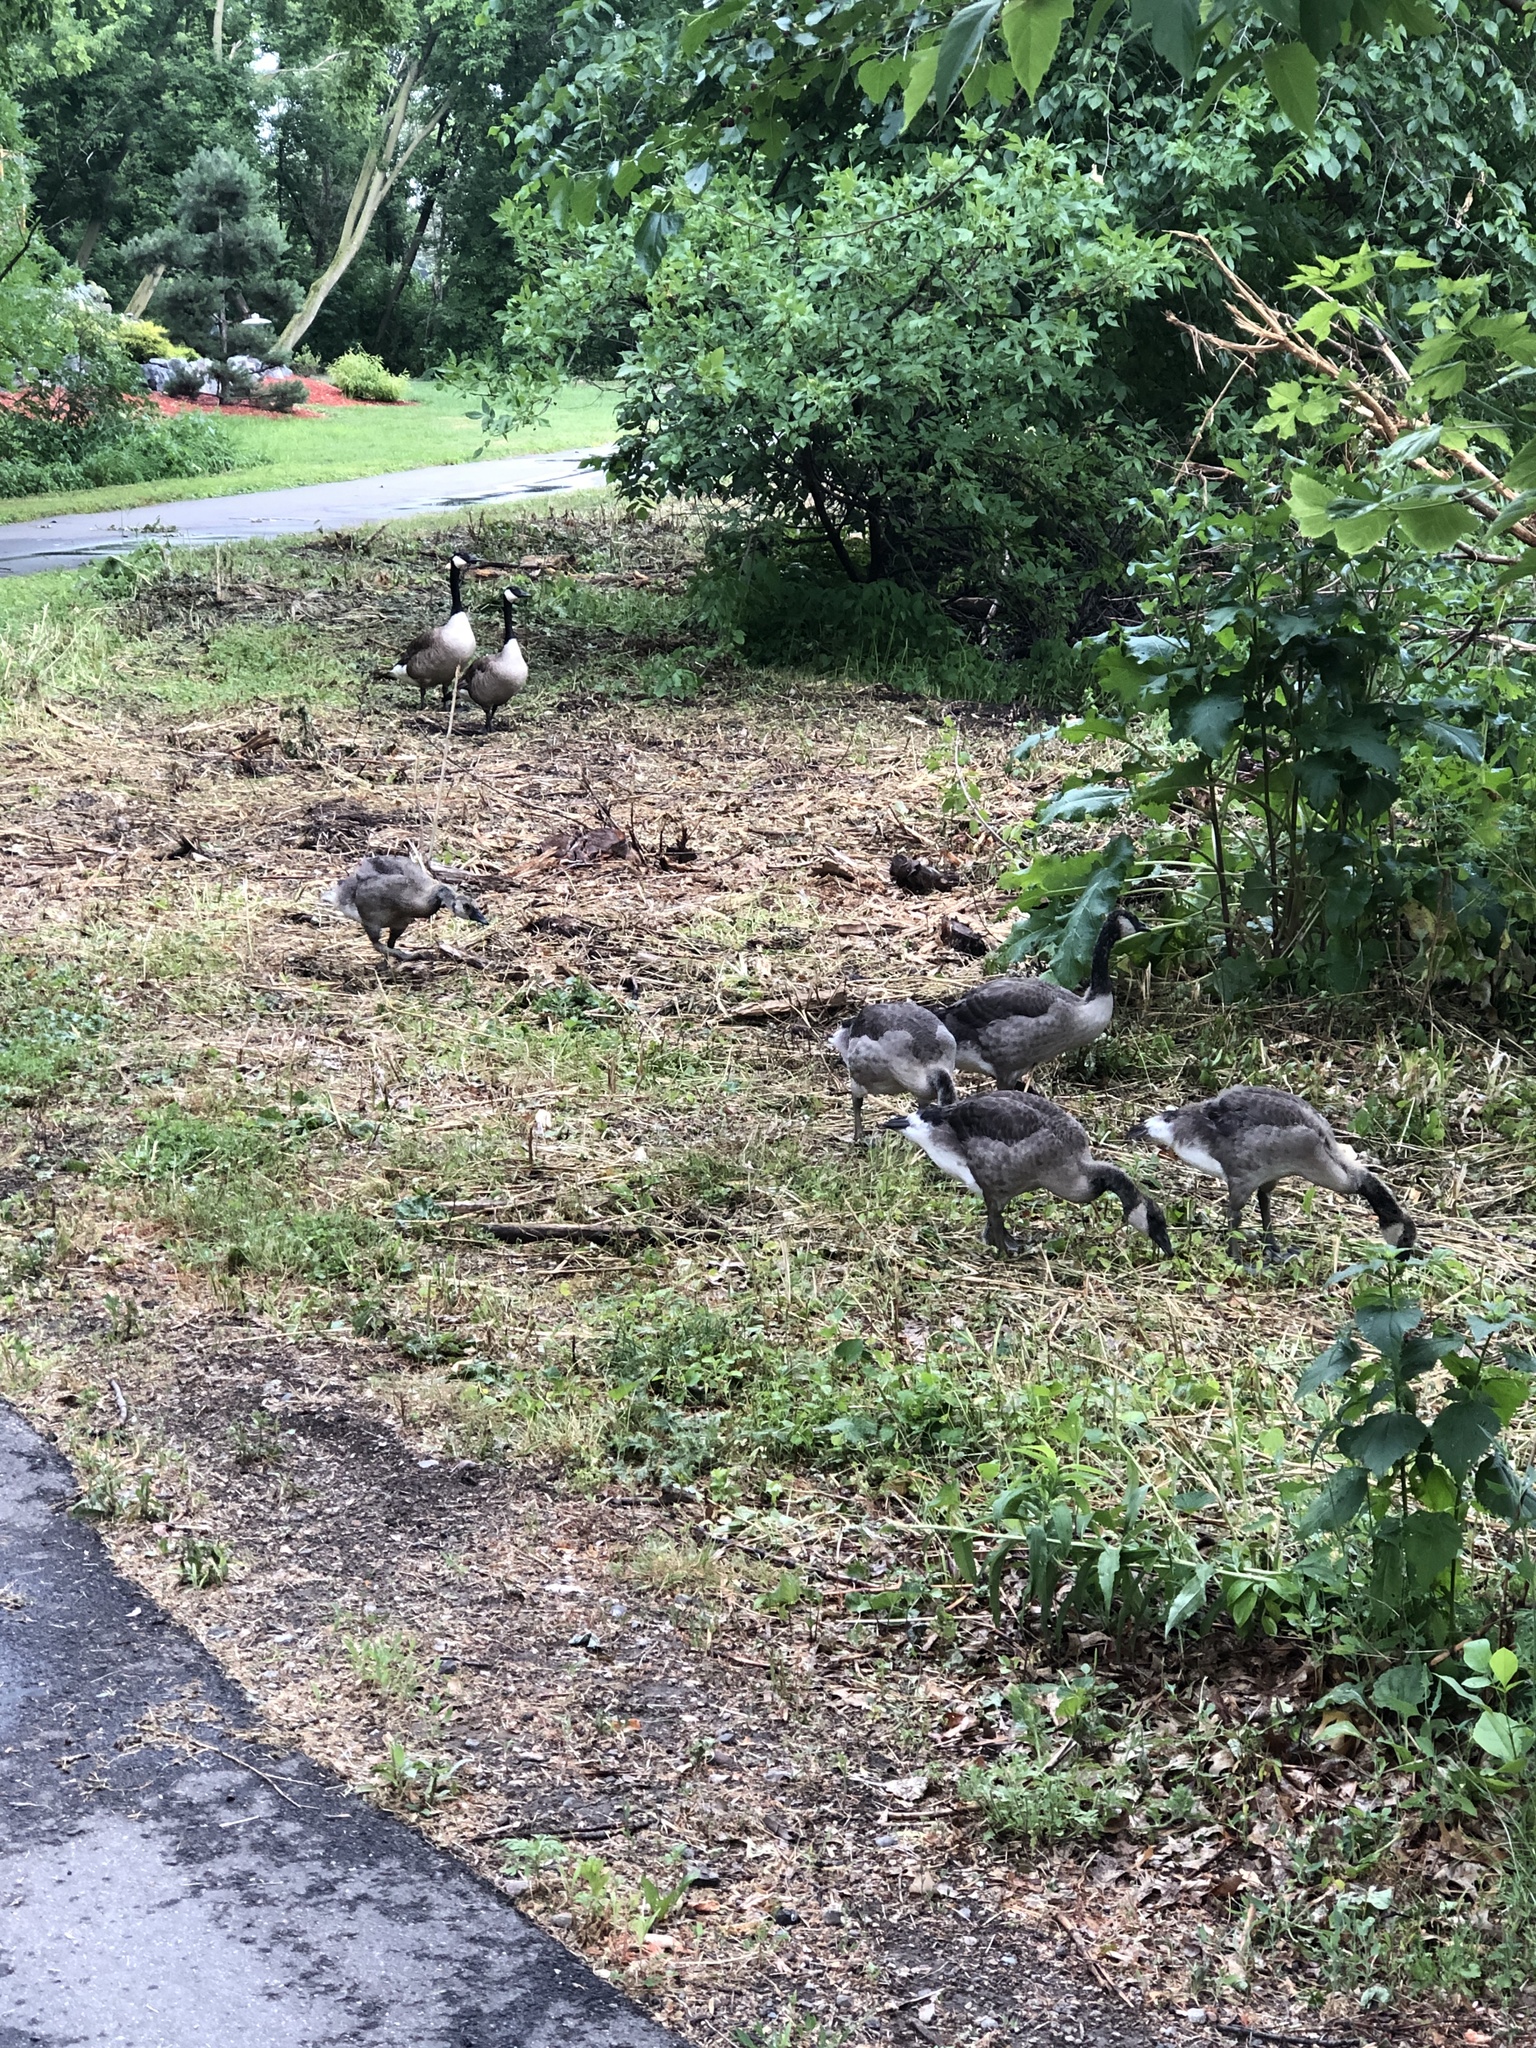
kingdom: Animalia
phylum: Chordata
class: Aves
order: Anseriformes
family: Anatidae
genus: Branta
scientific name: Branta canadensis
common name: Canada goose
